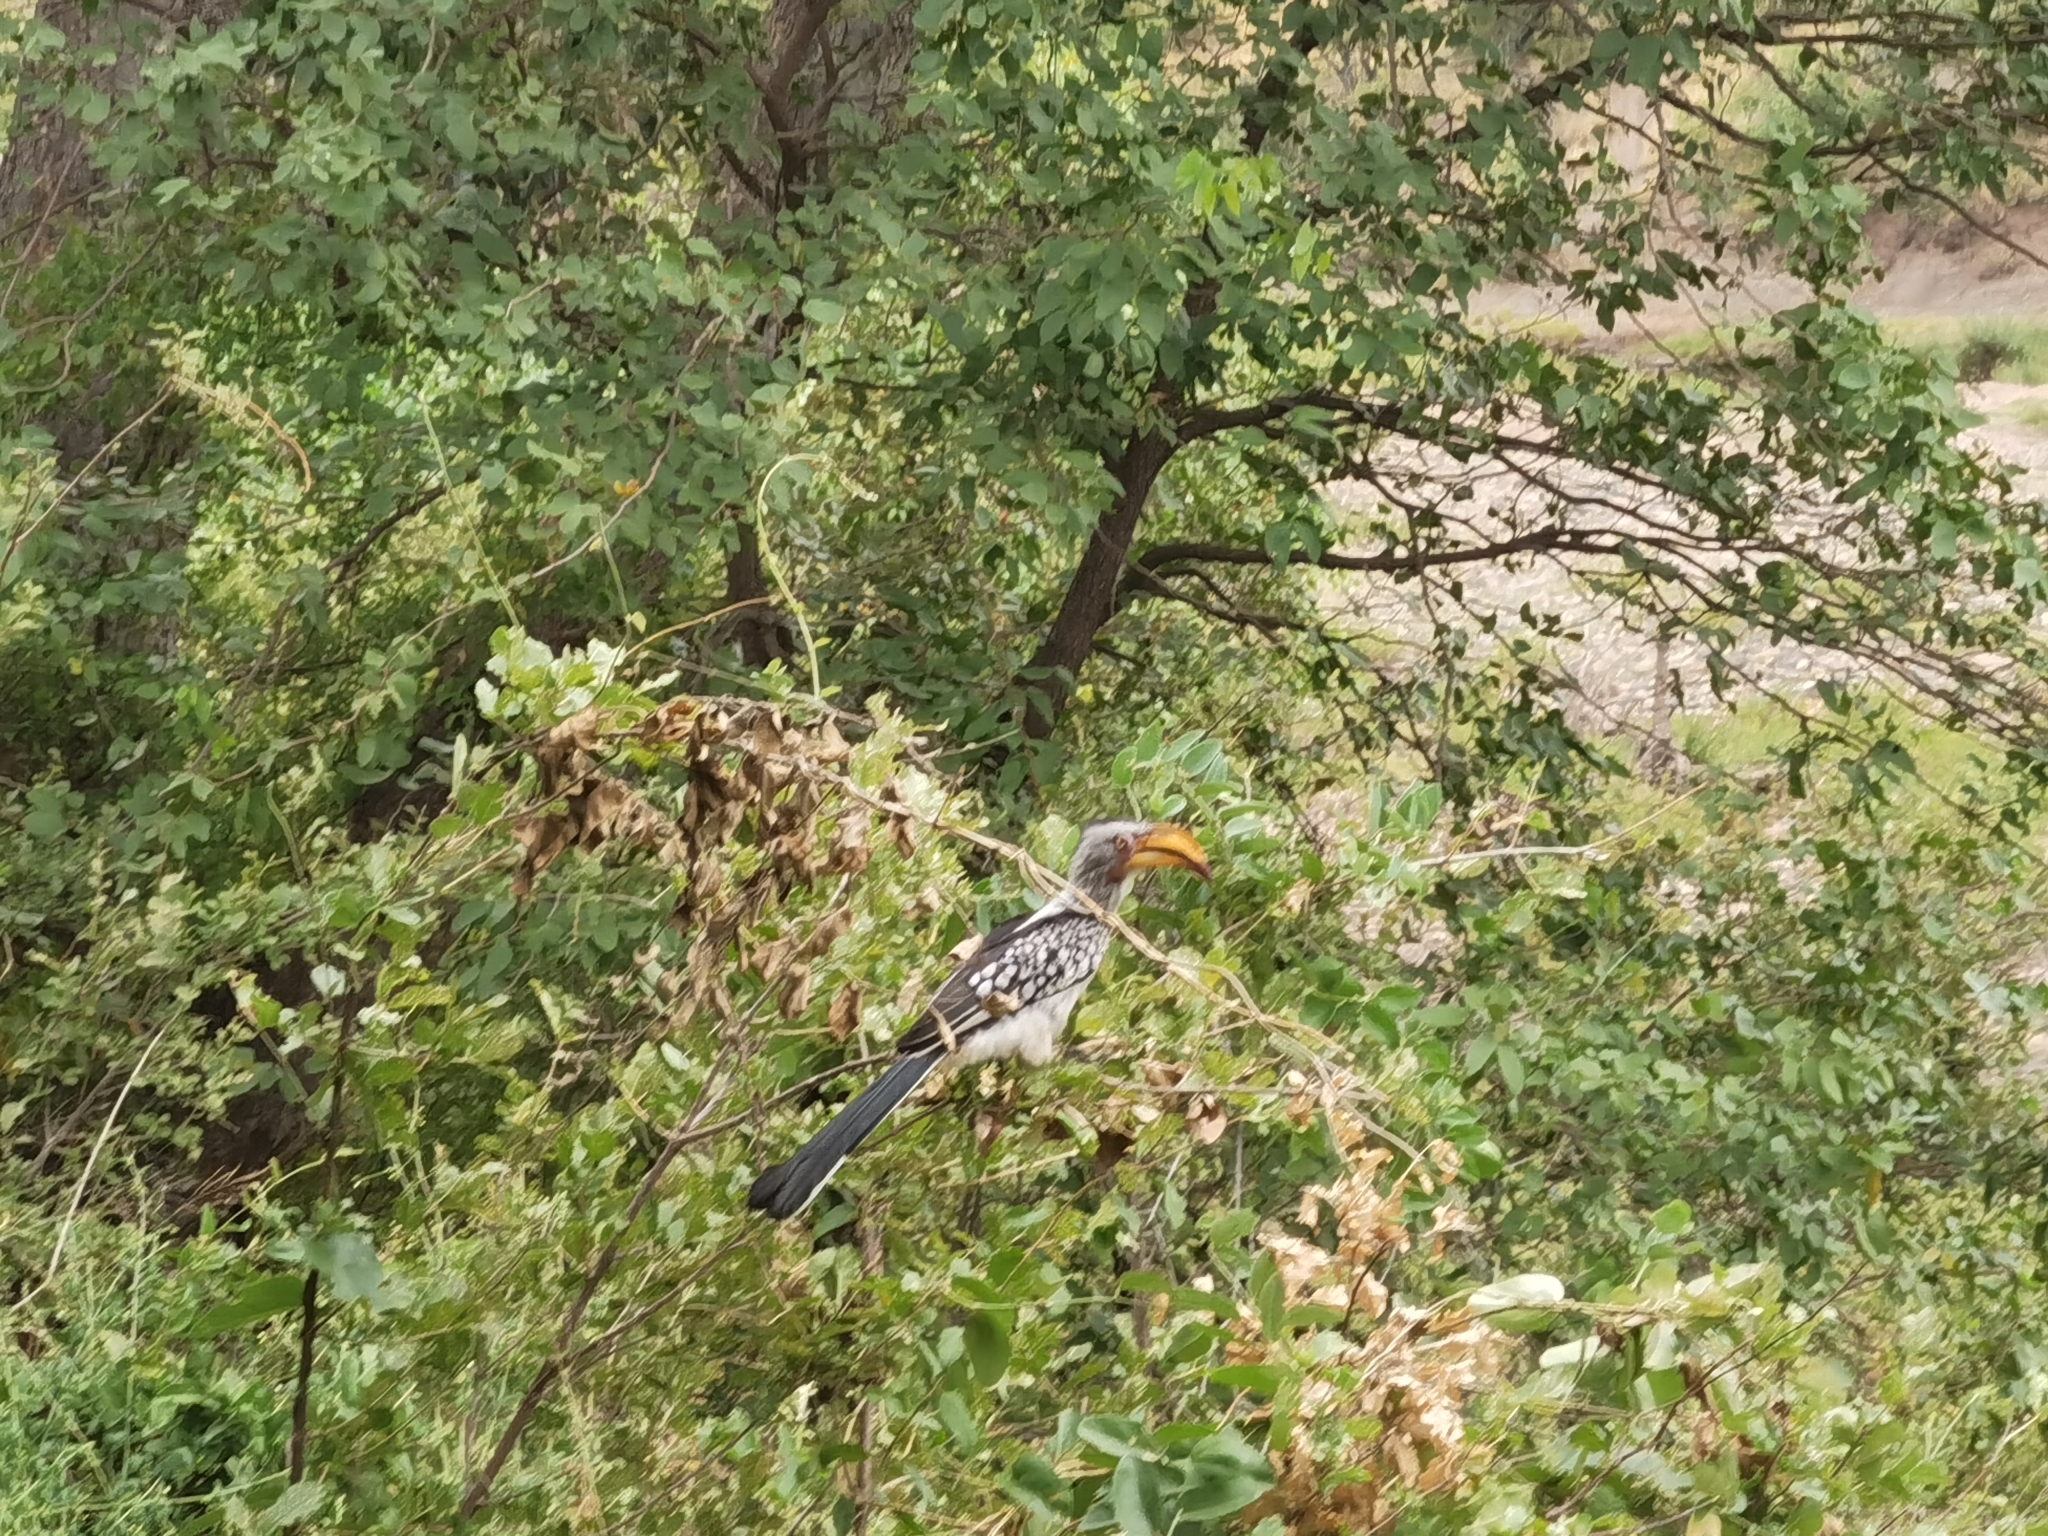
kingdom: Animalia
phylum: Chordata
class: Aves
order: Bucerotiformes
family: Bucerotidae
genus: Tockus
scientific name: Tockus leucomelas
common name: Southern yellow-billed hornbill
